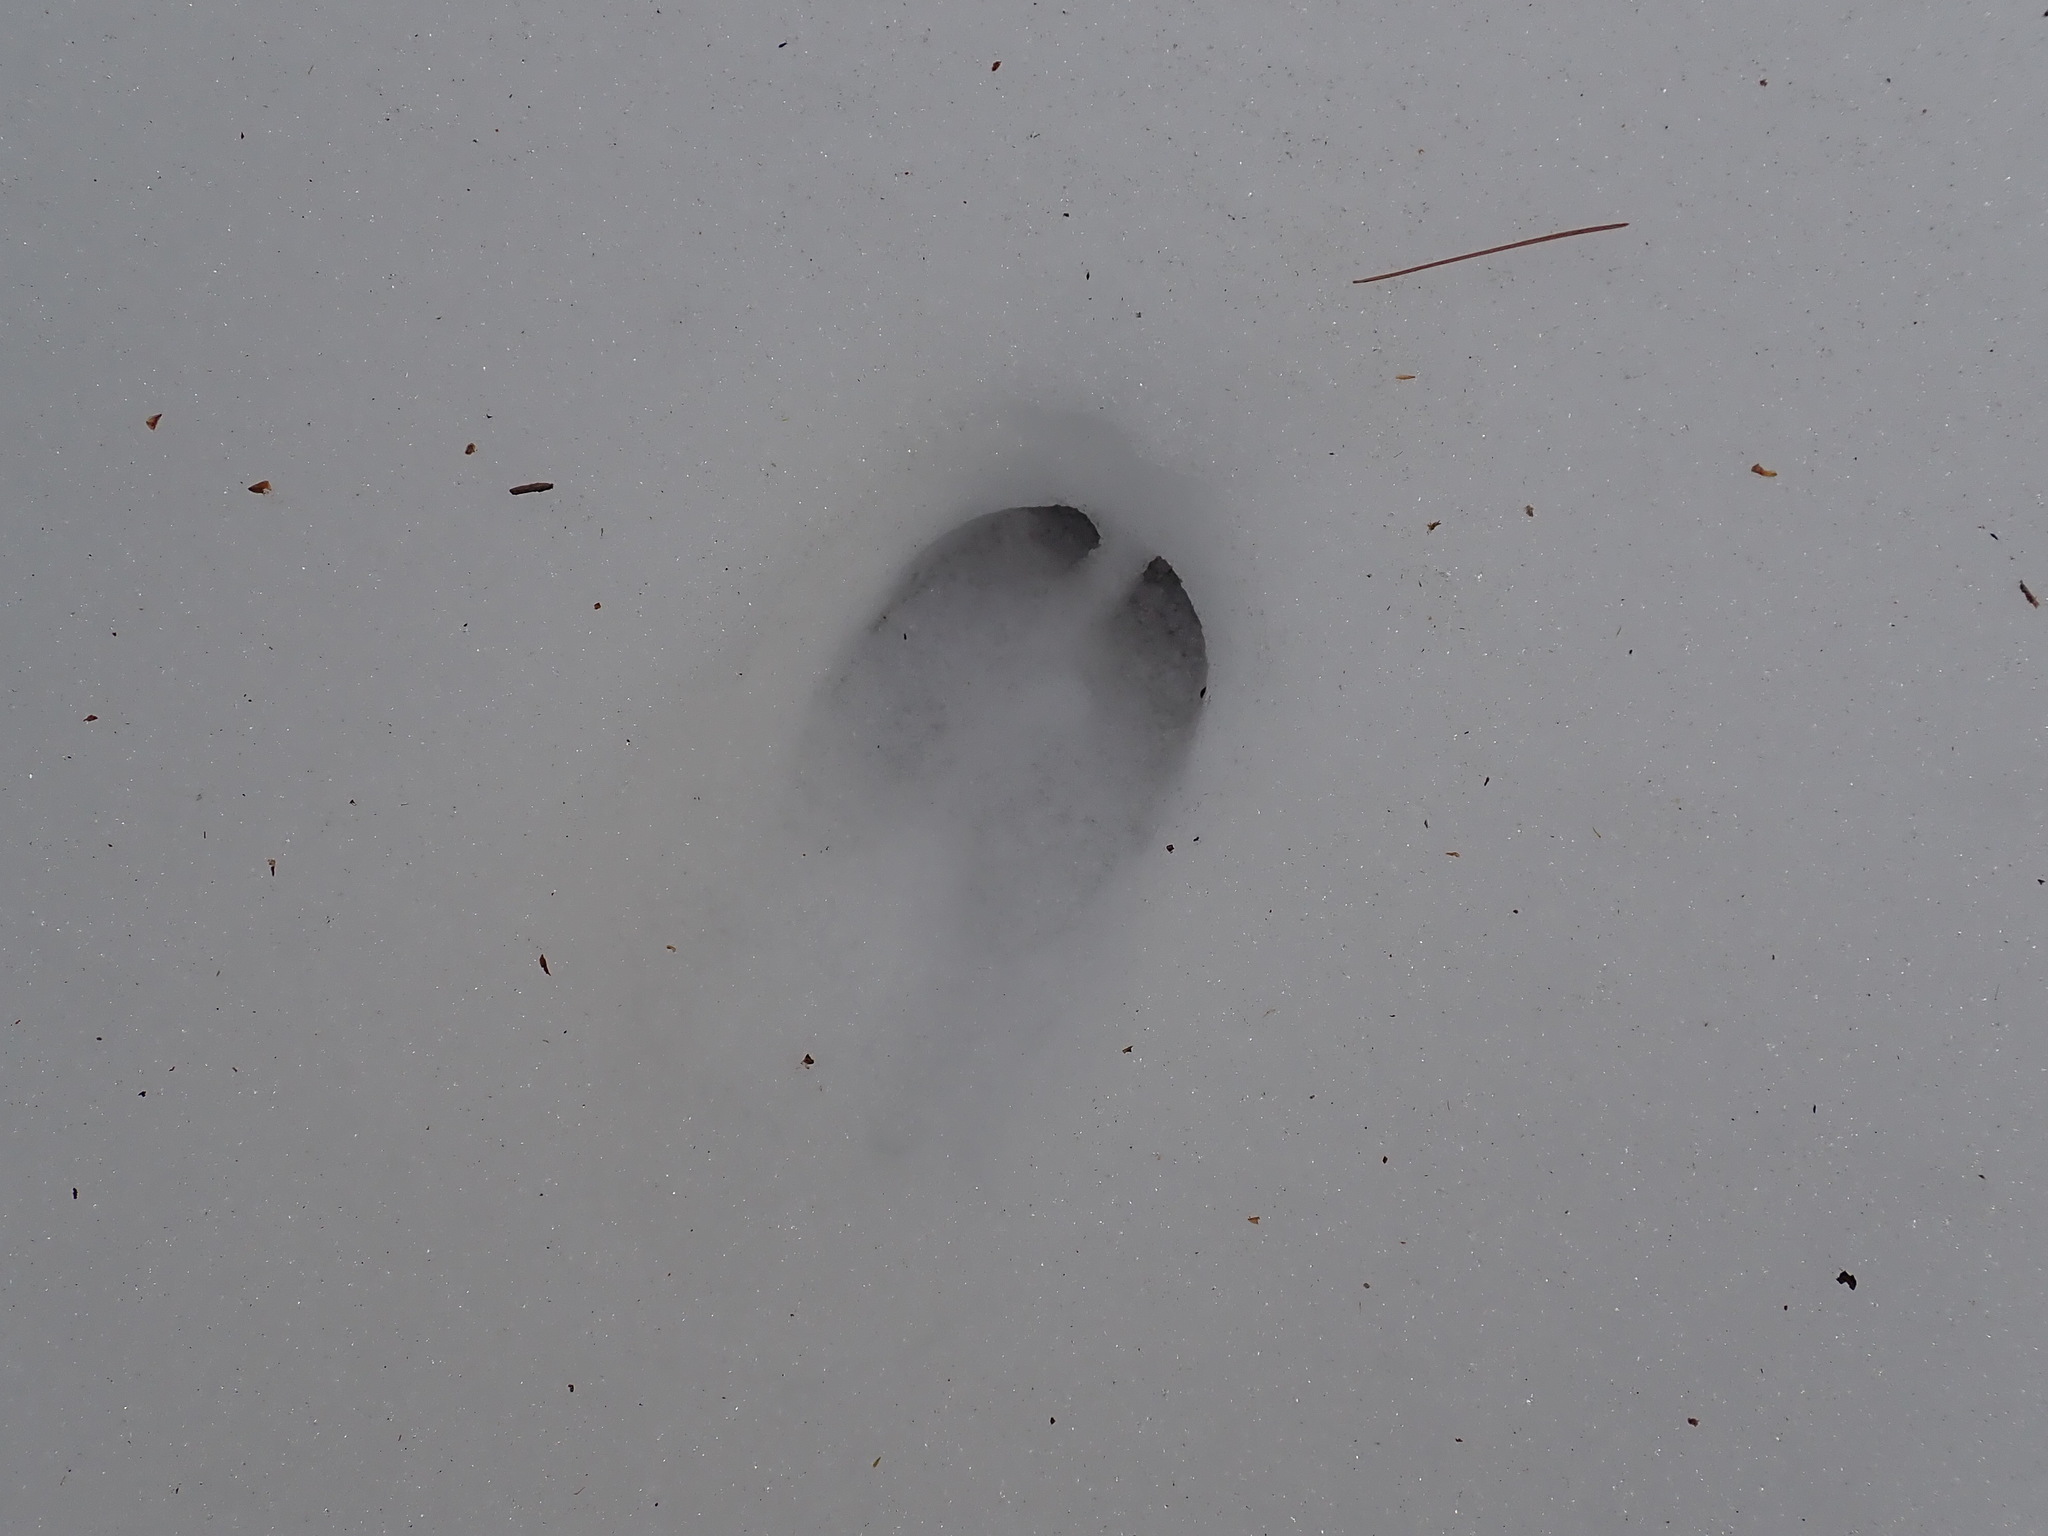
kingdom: Animalia
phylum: Chordata
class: Mammalia
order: Artiodactyla
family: Cervidae
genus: Odocoileus
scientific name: Odocoileus virginianus
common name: White-tailed deer
